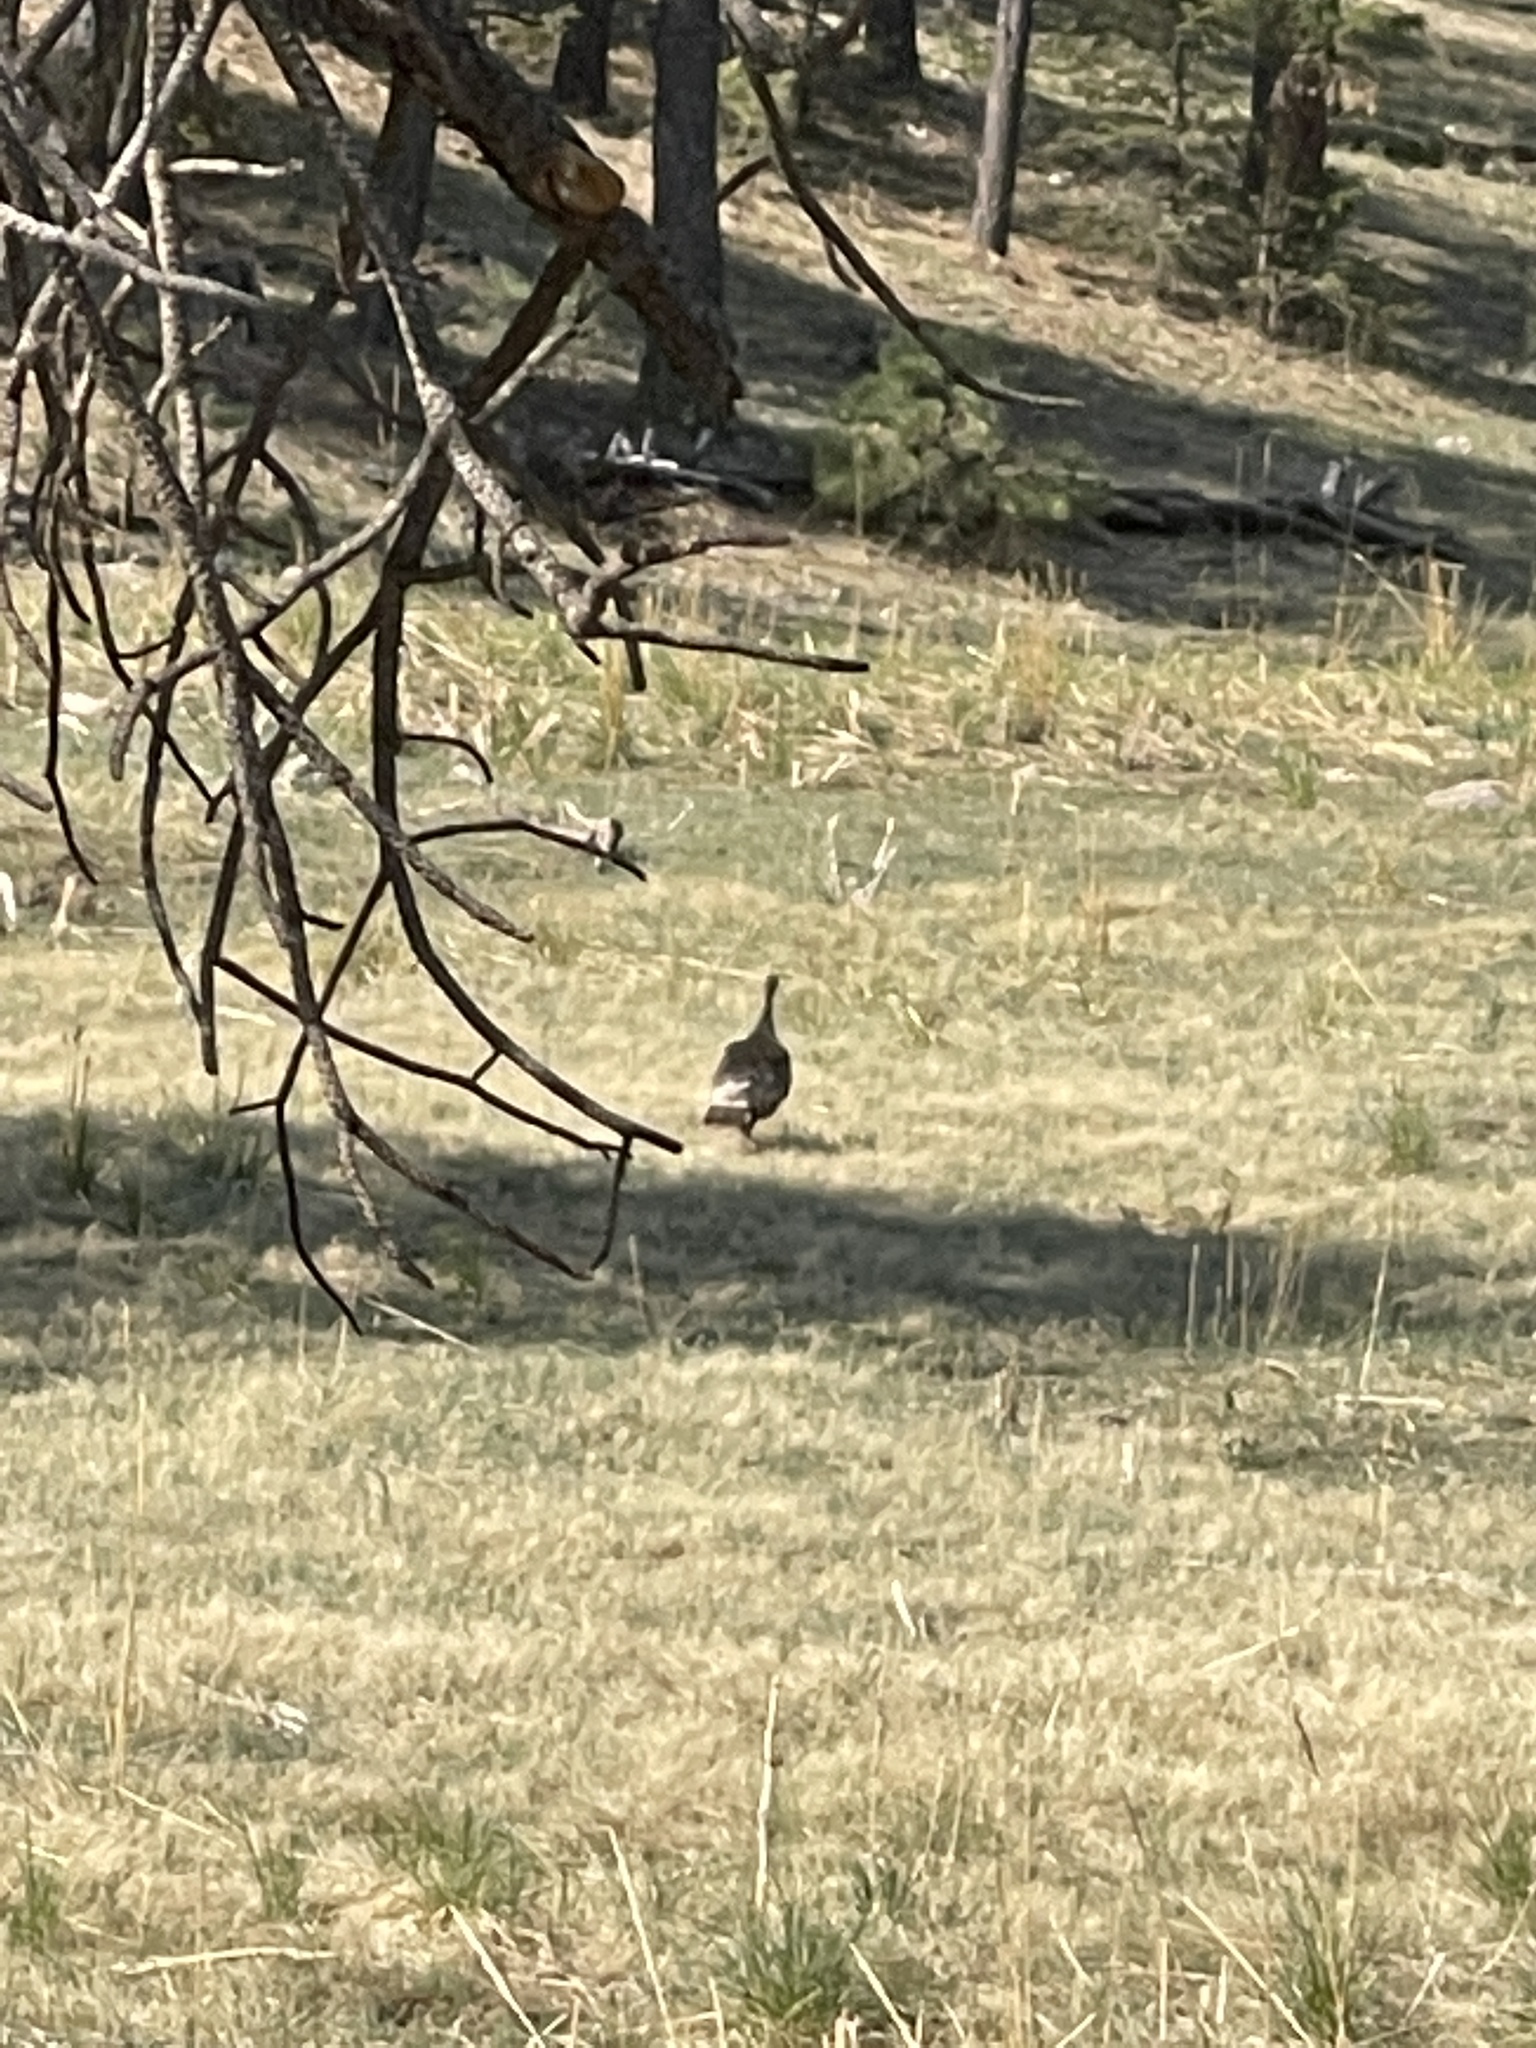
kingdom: Animalia
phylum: Chordata
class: Aves
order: Galliformes
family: Phasianidae
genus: Meleagris
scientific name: Meleagris gallopavo
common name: Wild turkey
